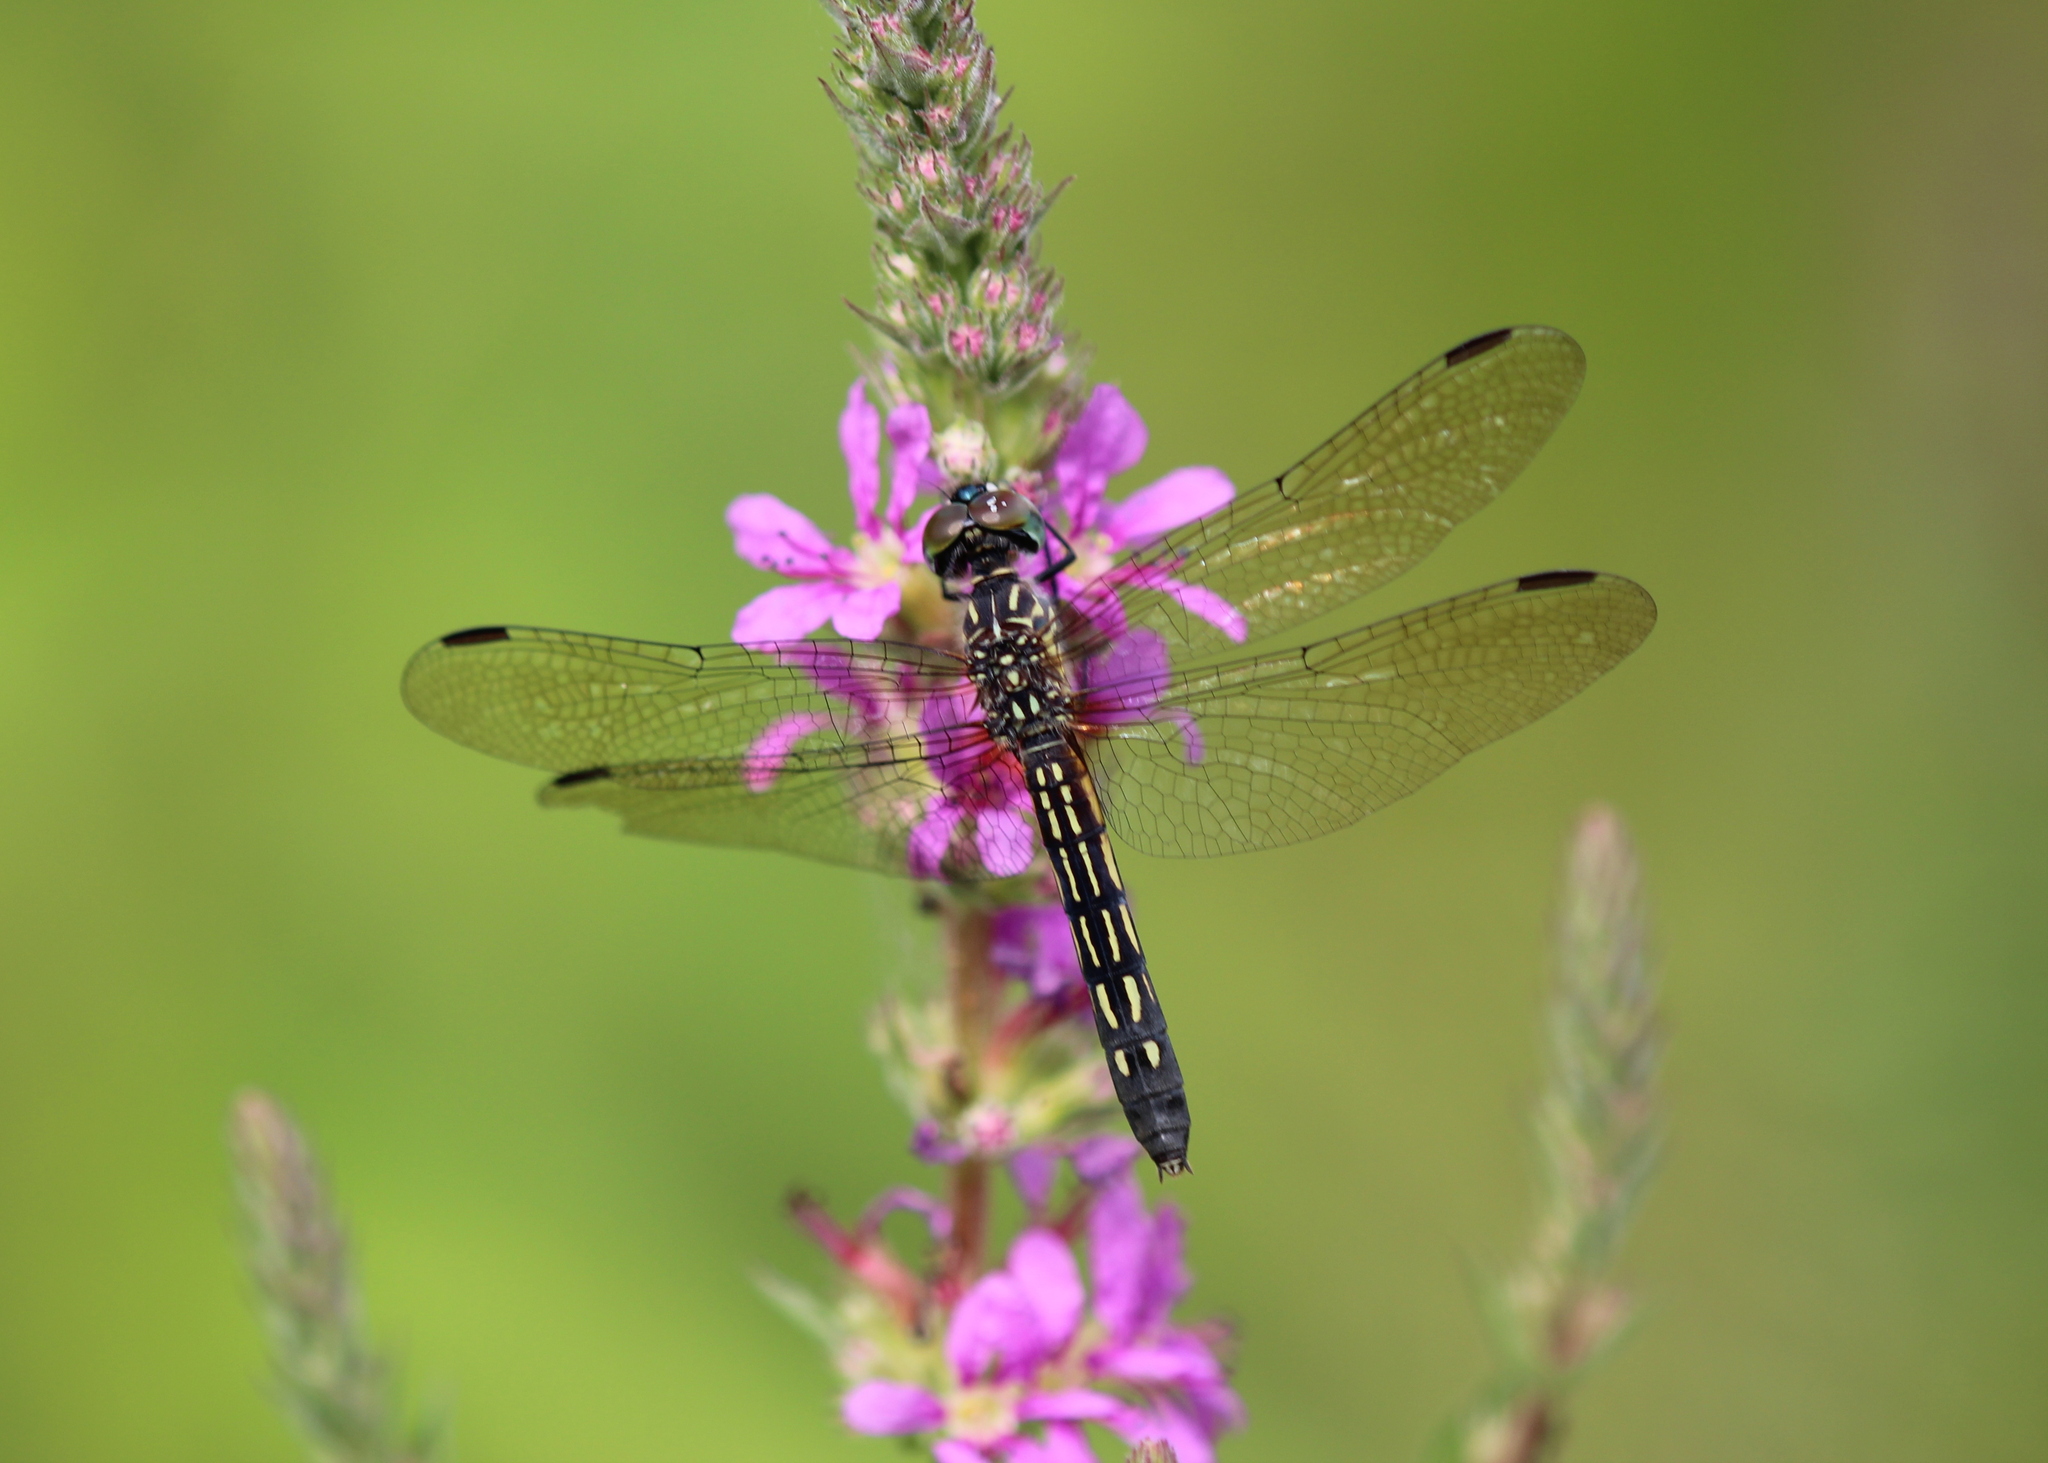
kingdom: Animalia
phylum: Arthropoda
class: Insecta
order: Odonata
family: Libellulidae
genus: Pachydiplax
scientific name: Pachydiplax longipennis
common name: Blue dasher
